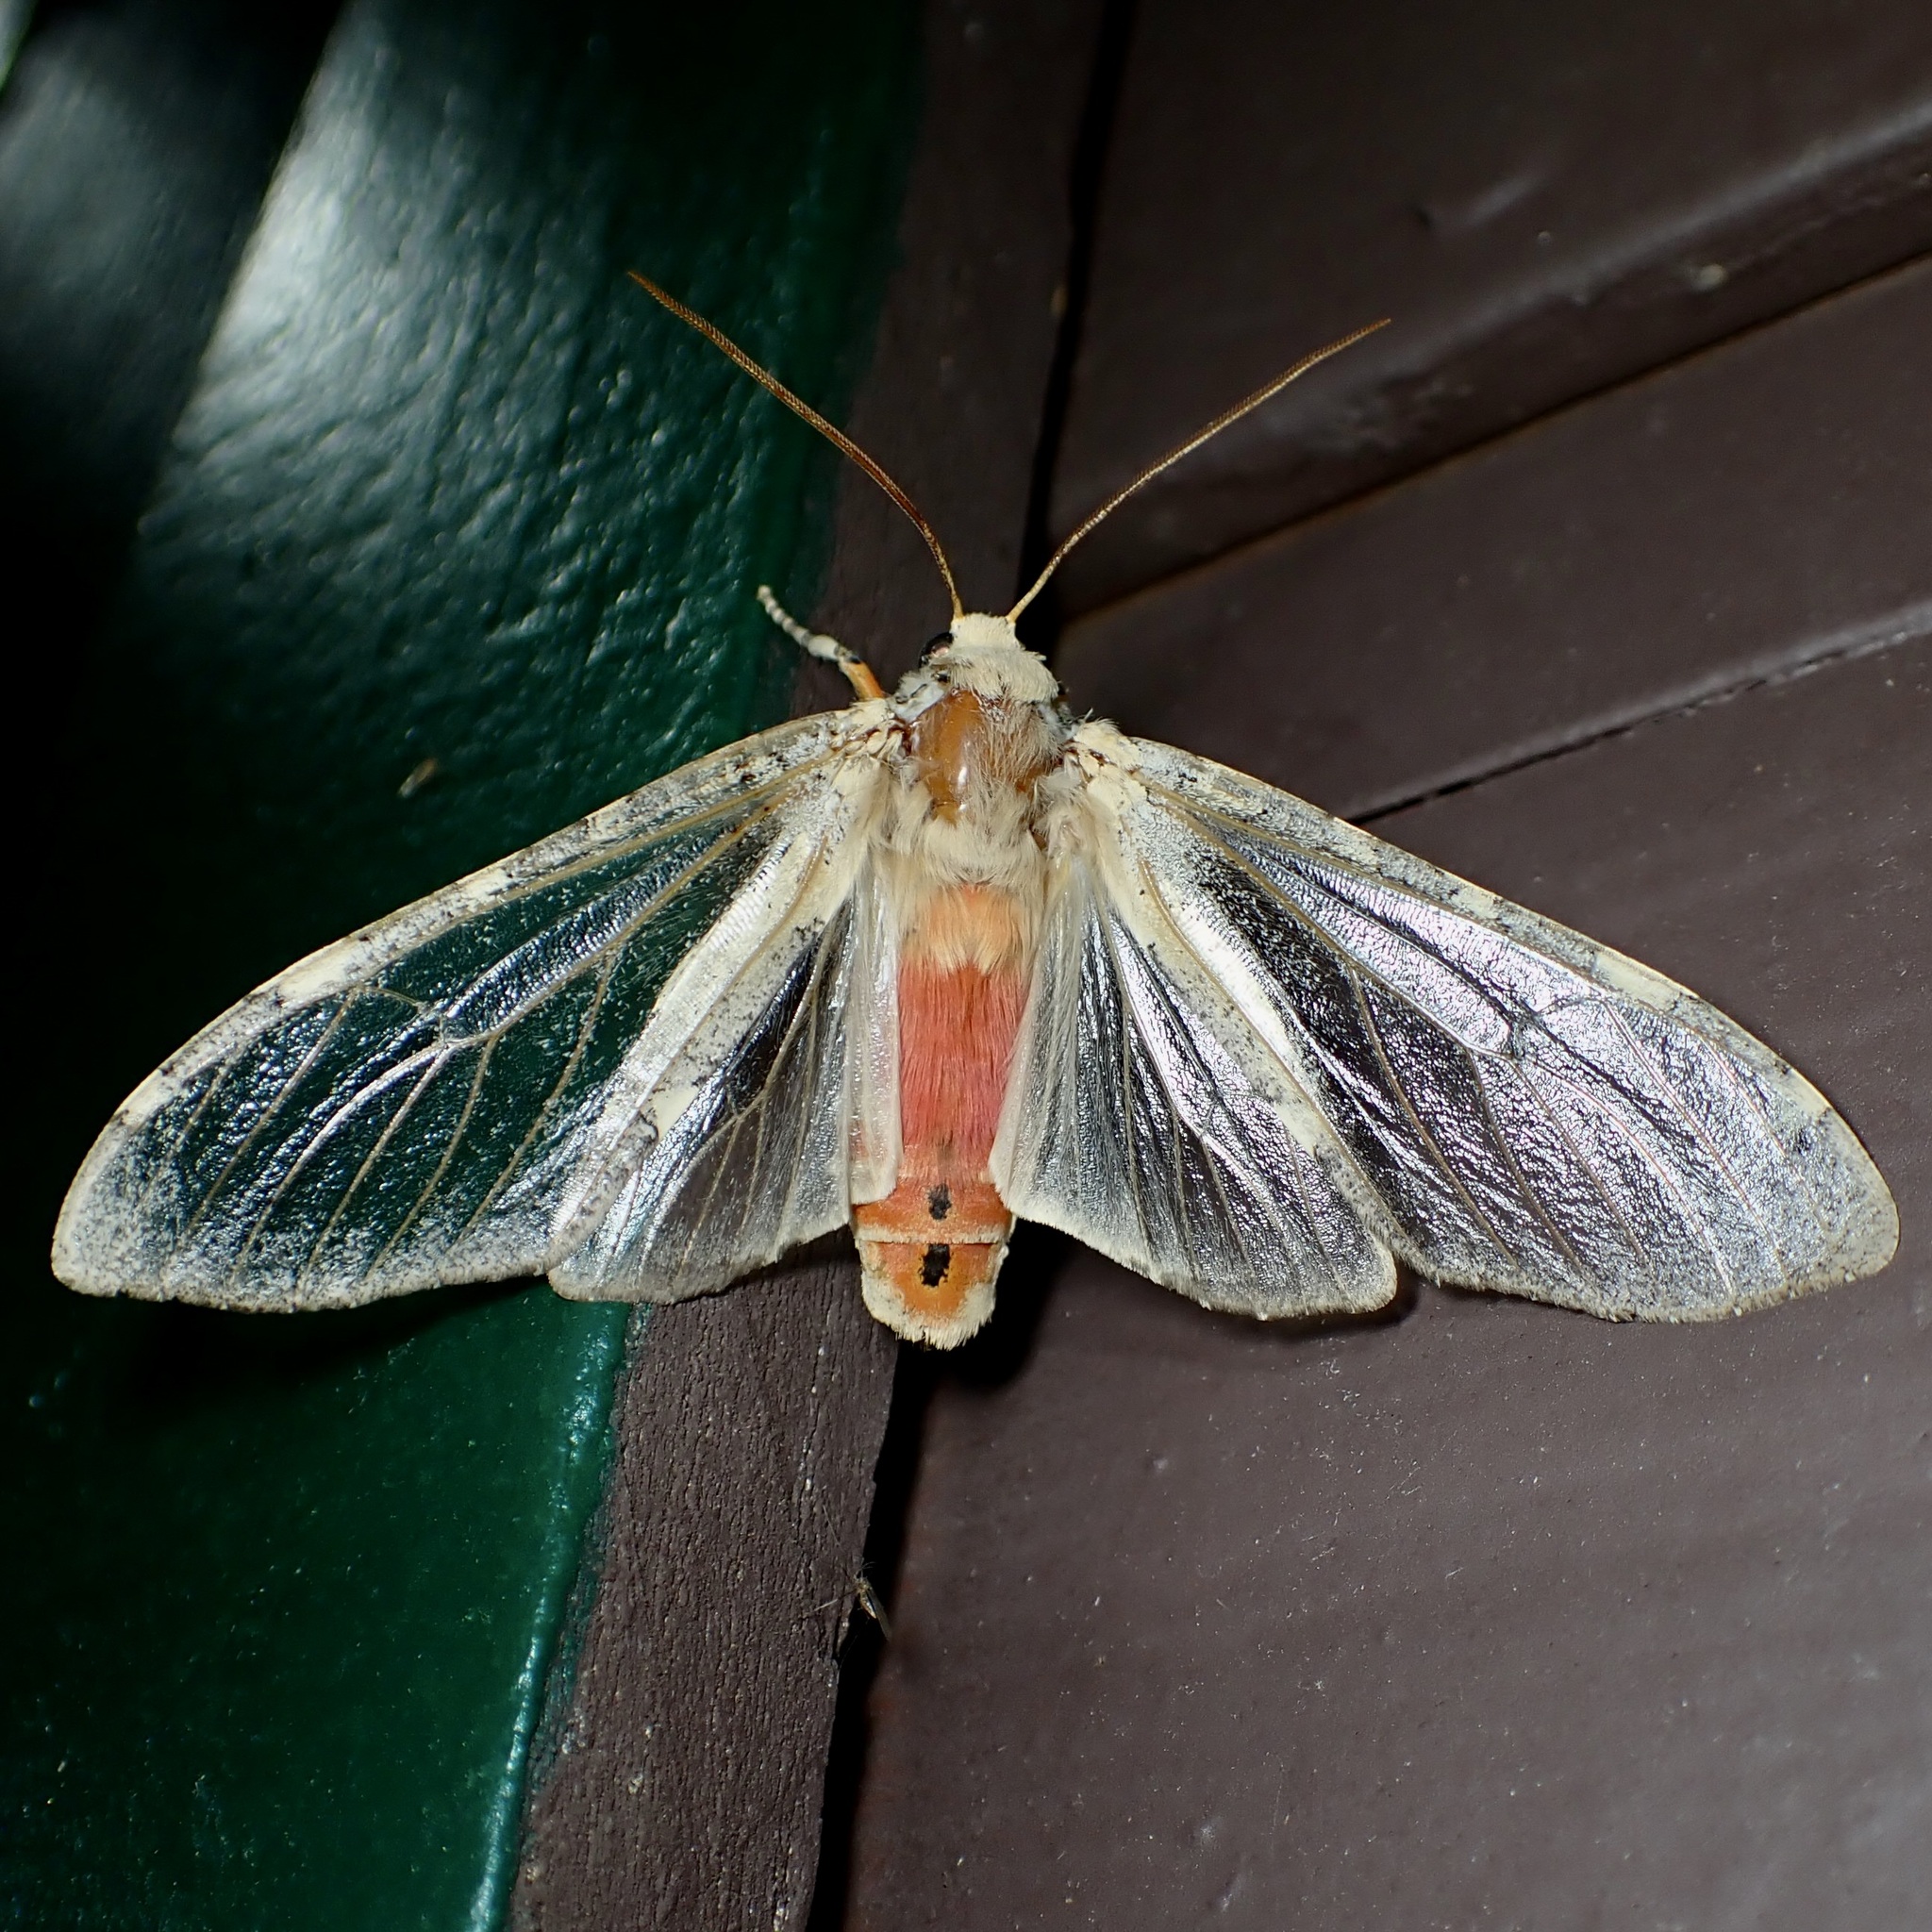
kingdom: Animalia
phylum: Arthropoda
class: Insecta
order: Lepidoptera
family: Erebidae
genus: Hemihyalea
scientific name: Hemihyalea edwardsii
